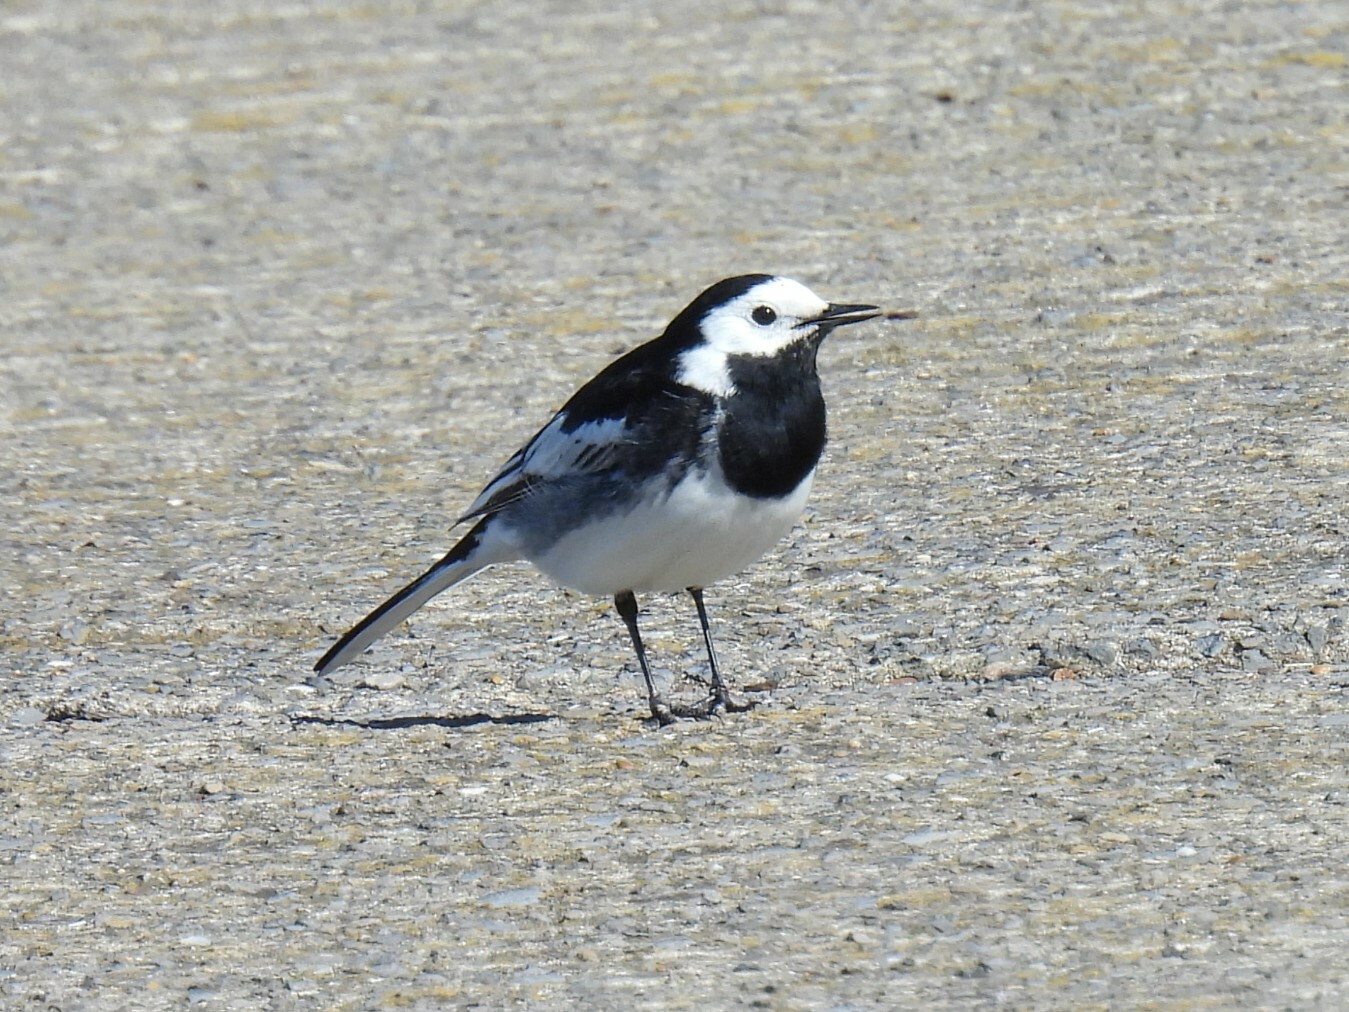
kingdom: Animalia
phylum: Chordata
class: Aves
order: Passeriformes
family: Motacillidae
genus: Motacilla
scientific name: Motacilla alba
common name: White wagtail
